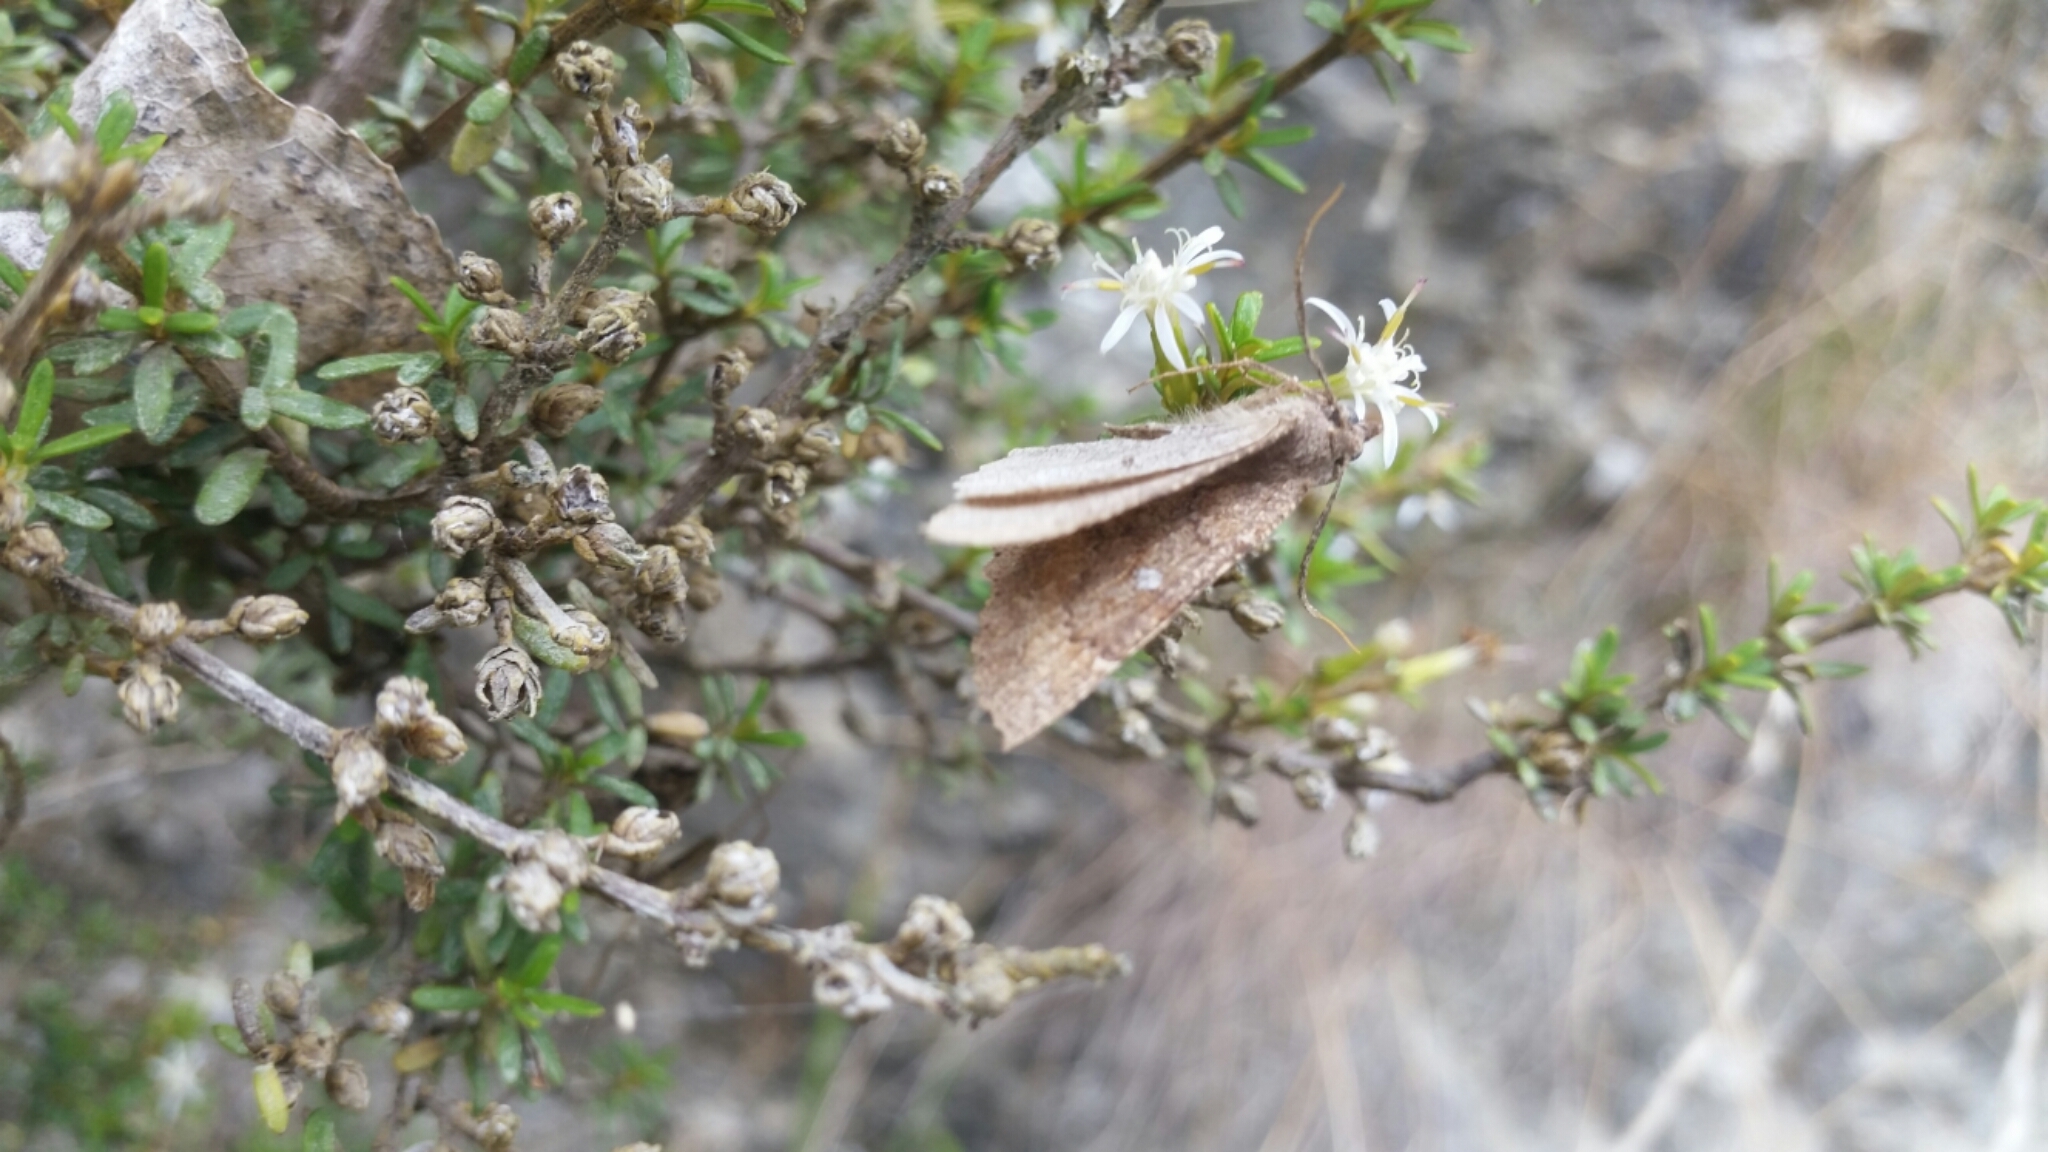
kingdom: Animalia
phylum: Arthropoda
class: Insecta
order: Lepidoptera
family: Geometridae
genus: Cleora
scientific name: Cleora scriptaria
